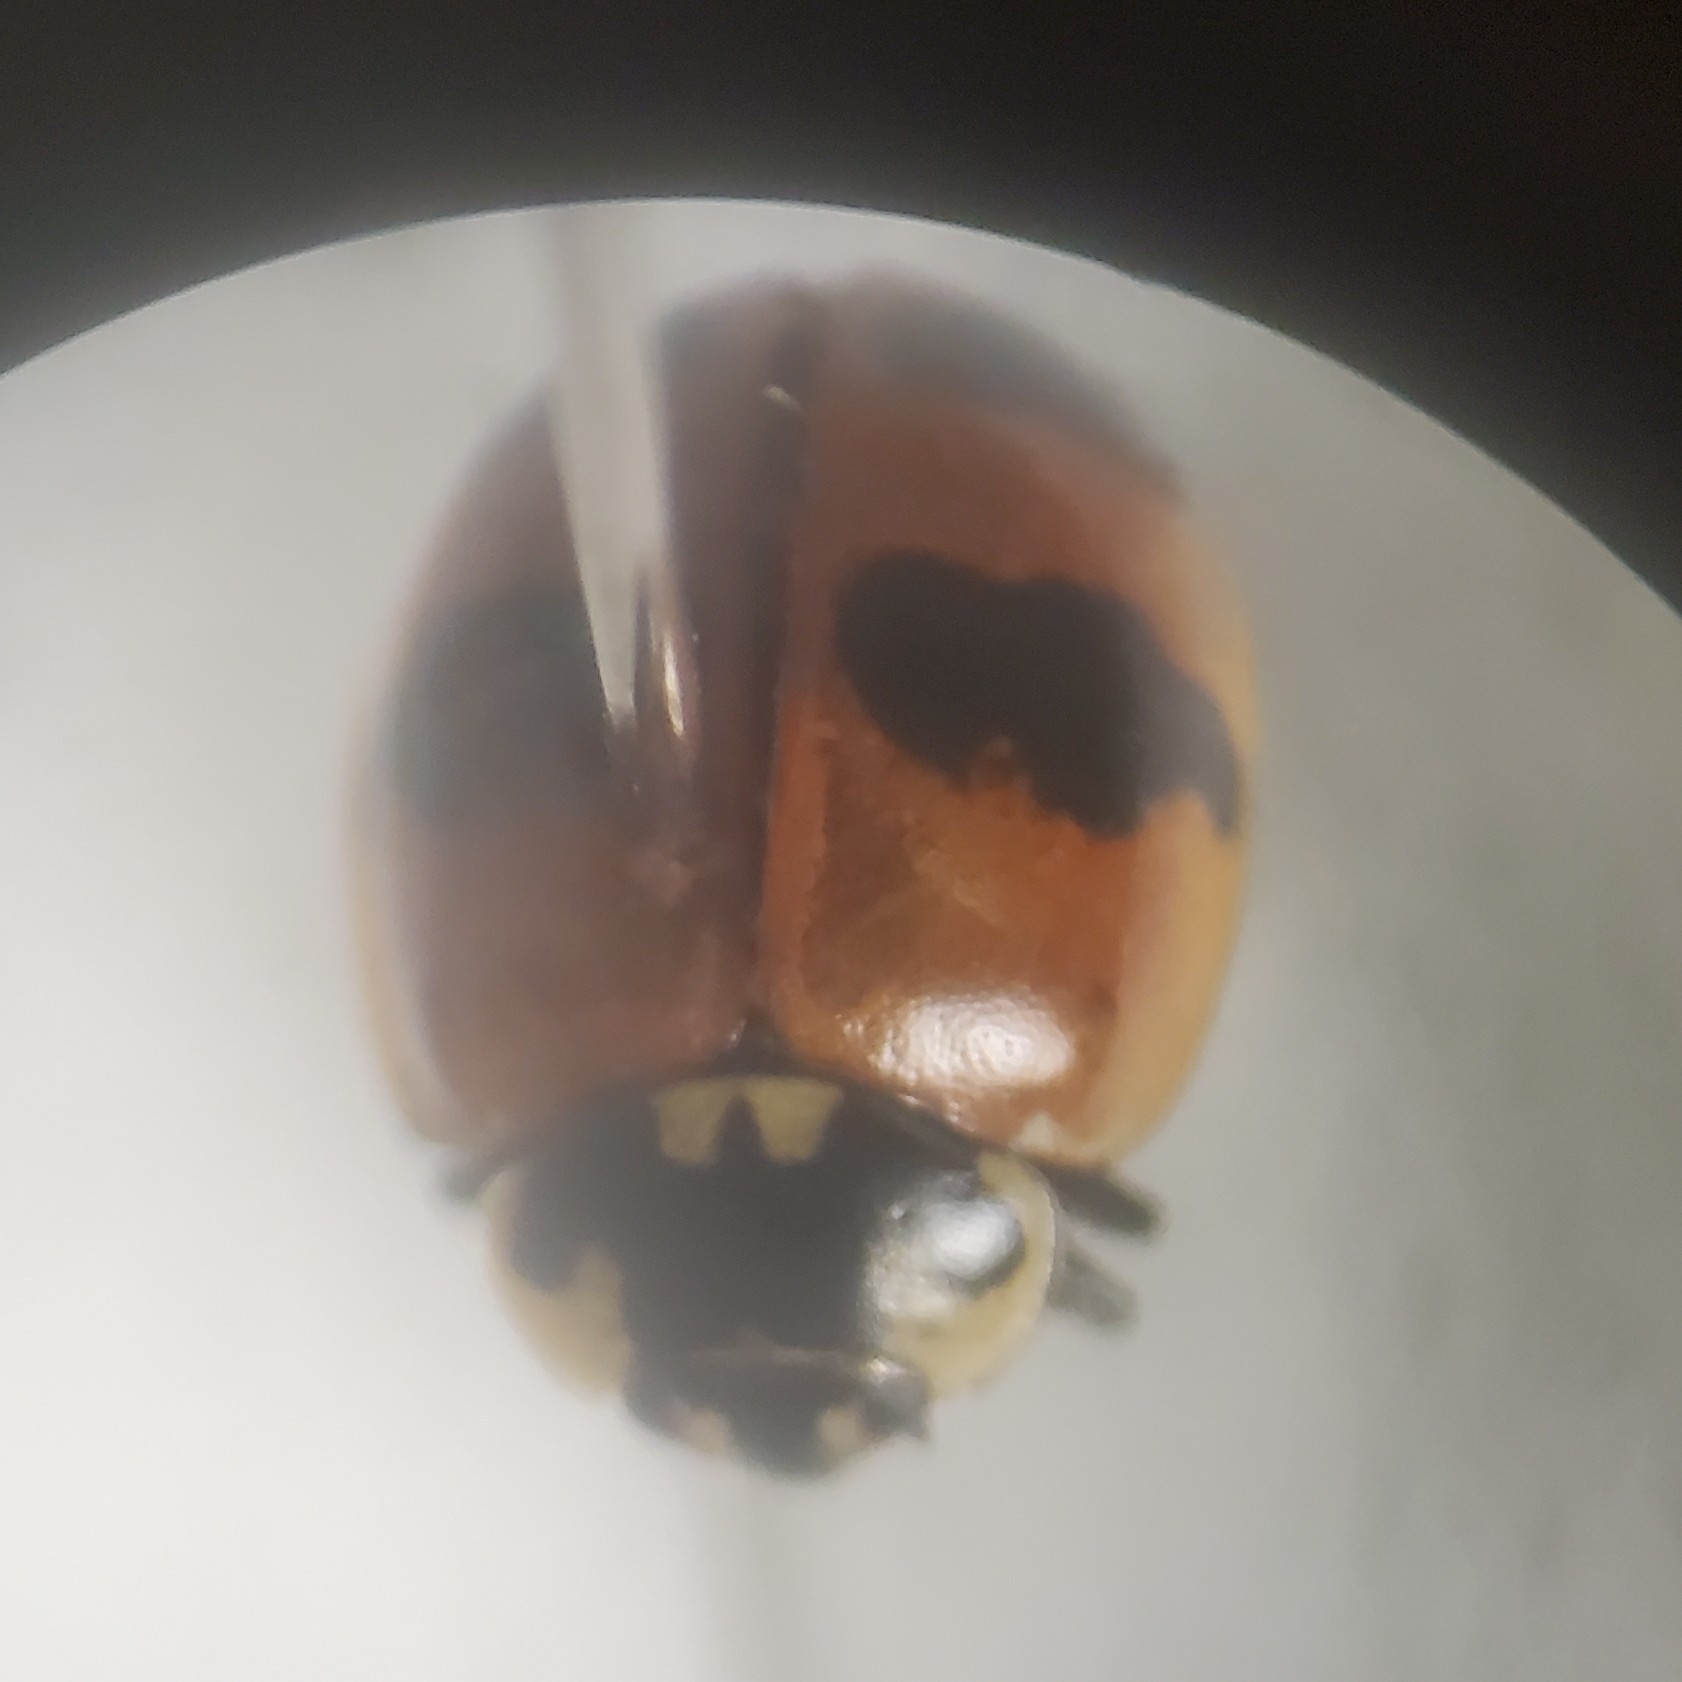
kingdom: Animalia
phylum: Arthropoda
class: Insecta
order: Coleoptera
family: Coccinellidae
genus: Adalia
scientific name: Adalia bipunctata
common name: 2-spot ladybird
